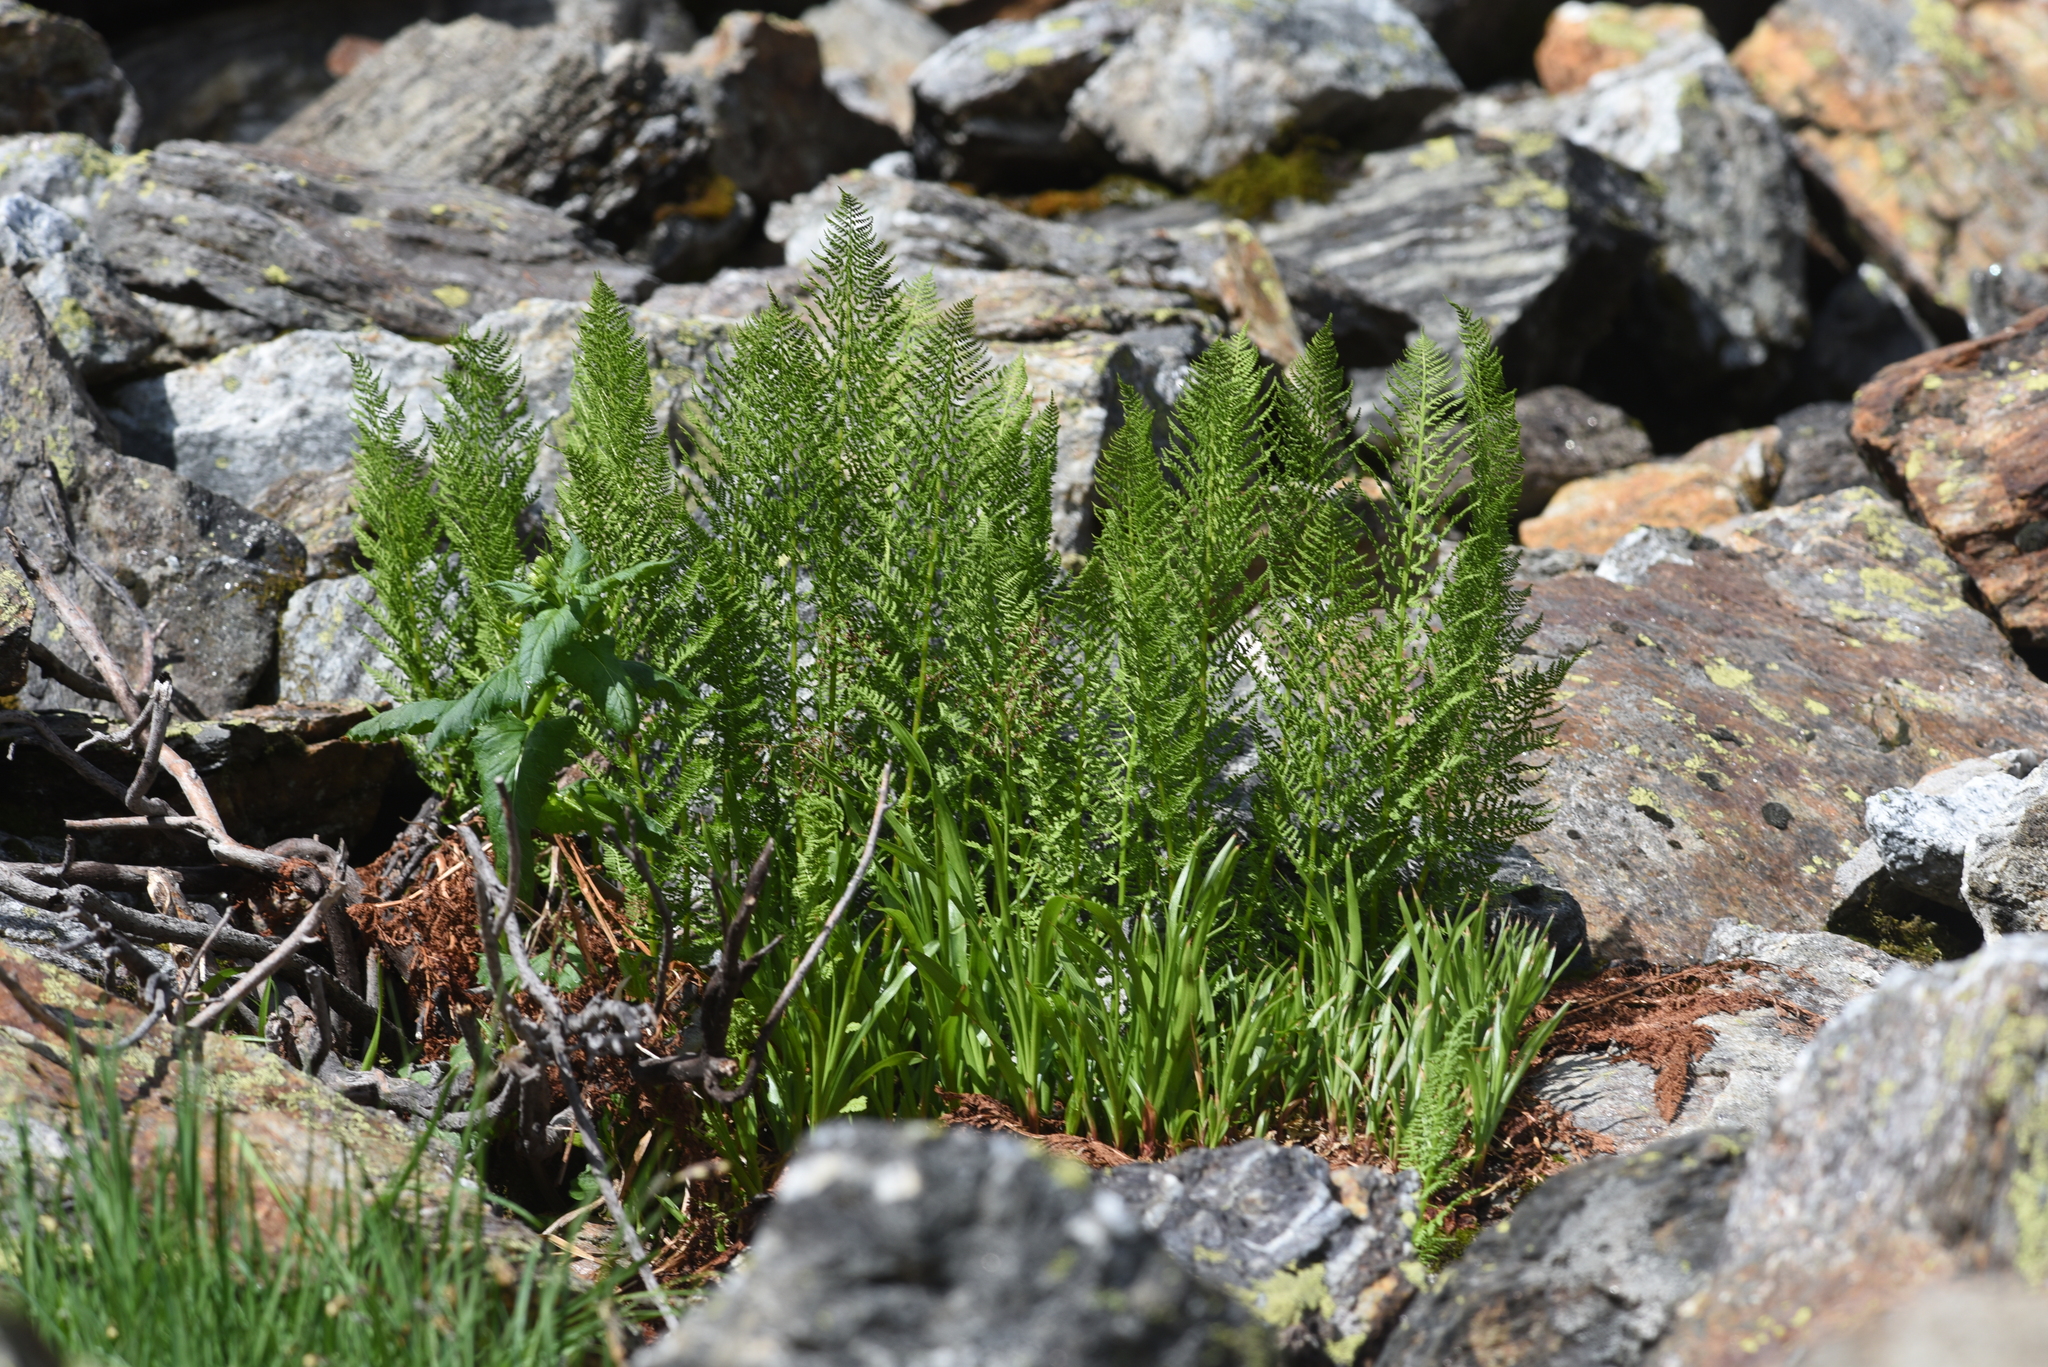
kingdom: Plantae
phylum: Tracheophyta
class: Polypodiopsida
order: Polypodiales
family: Athyriaceae
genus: Athyrium
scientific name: Athyrium americanum
